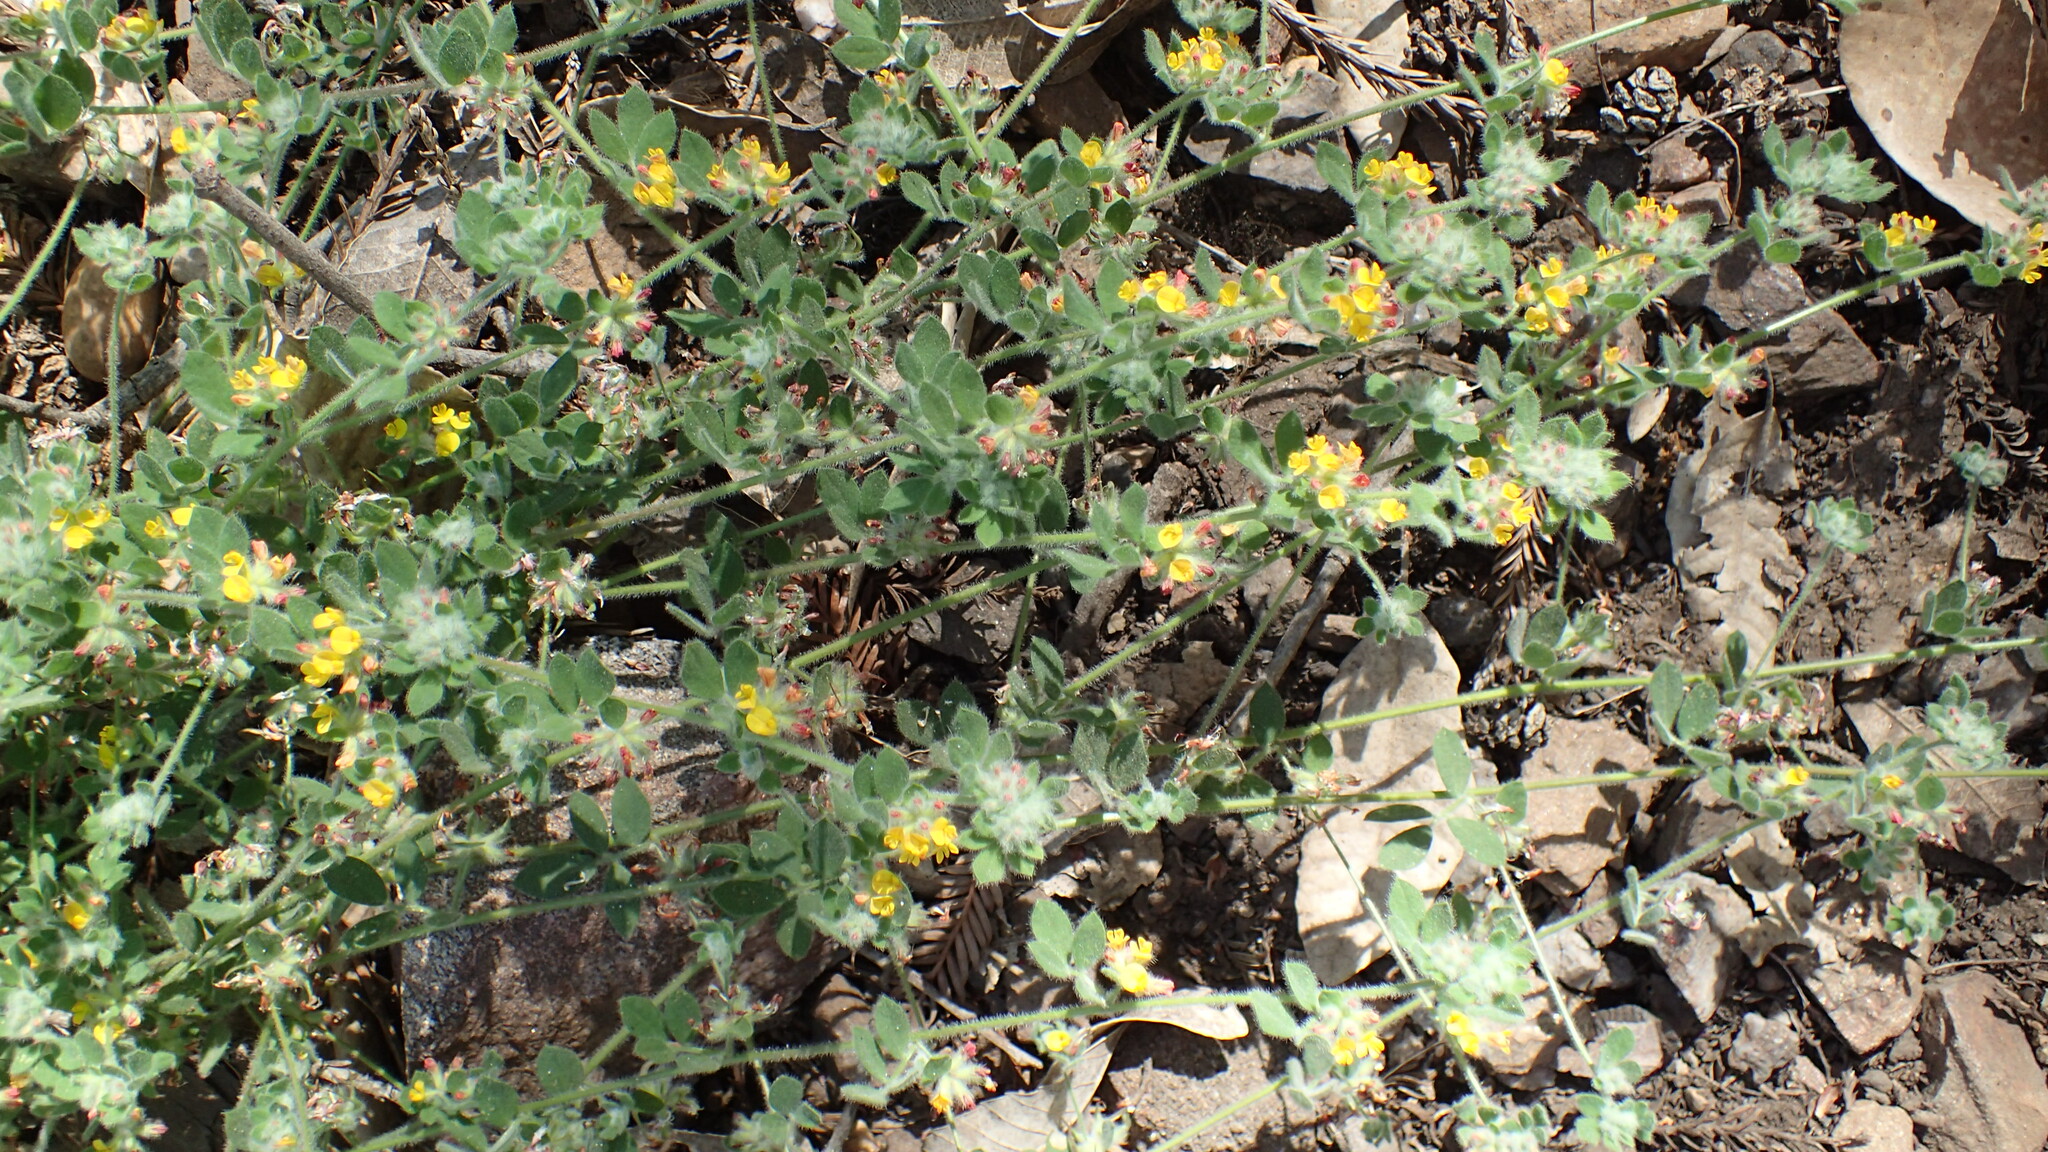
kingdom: Plantae
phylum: Tracheophyta
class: Magnoliopsida
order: Fabales
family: Fabaceae
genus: Acmispon
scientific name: Acmispon tomentosus
